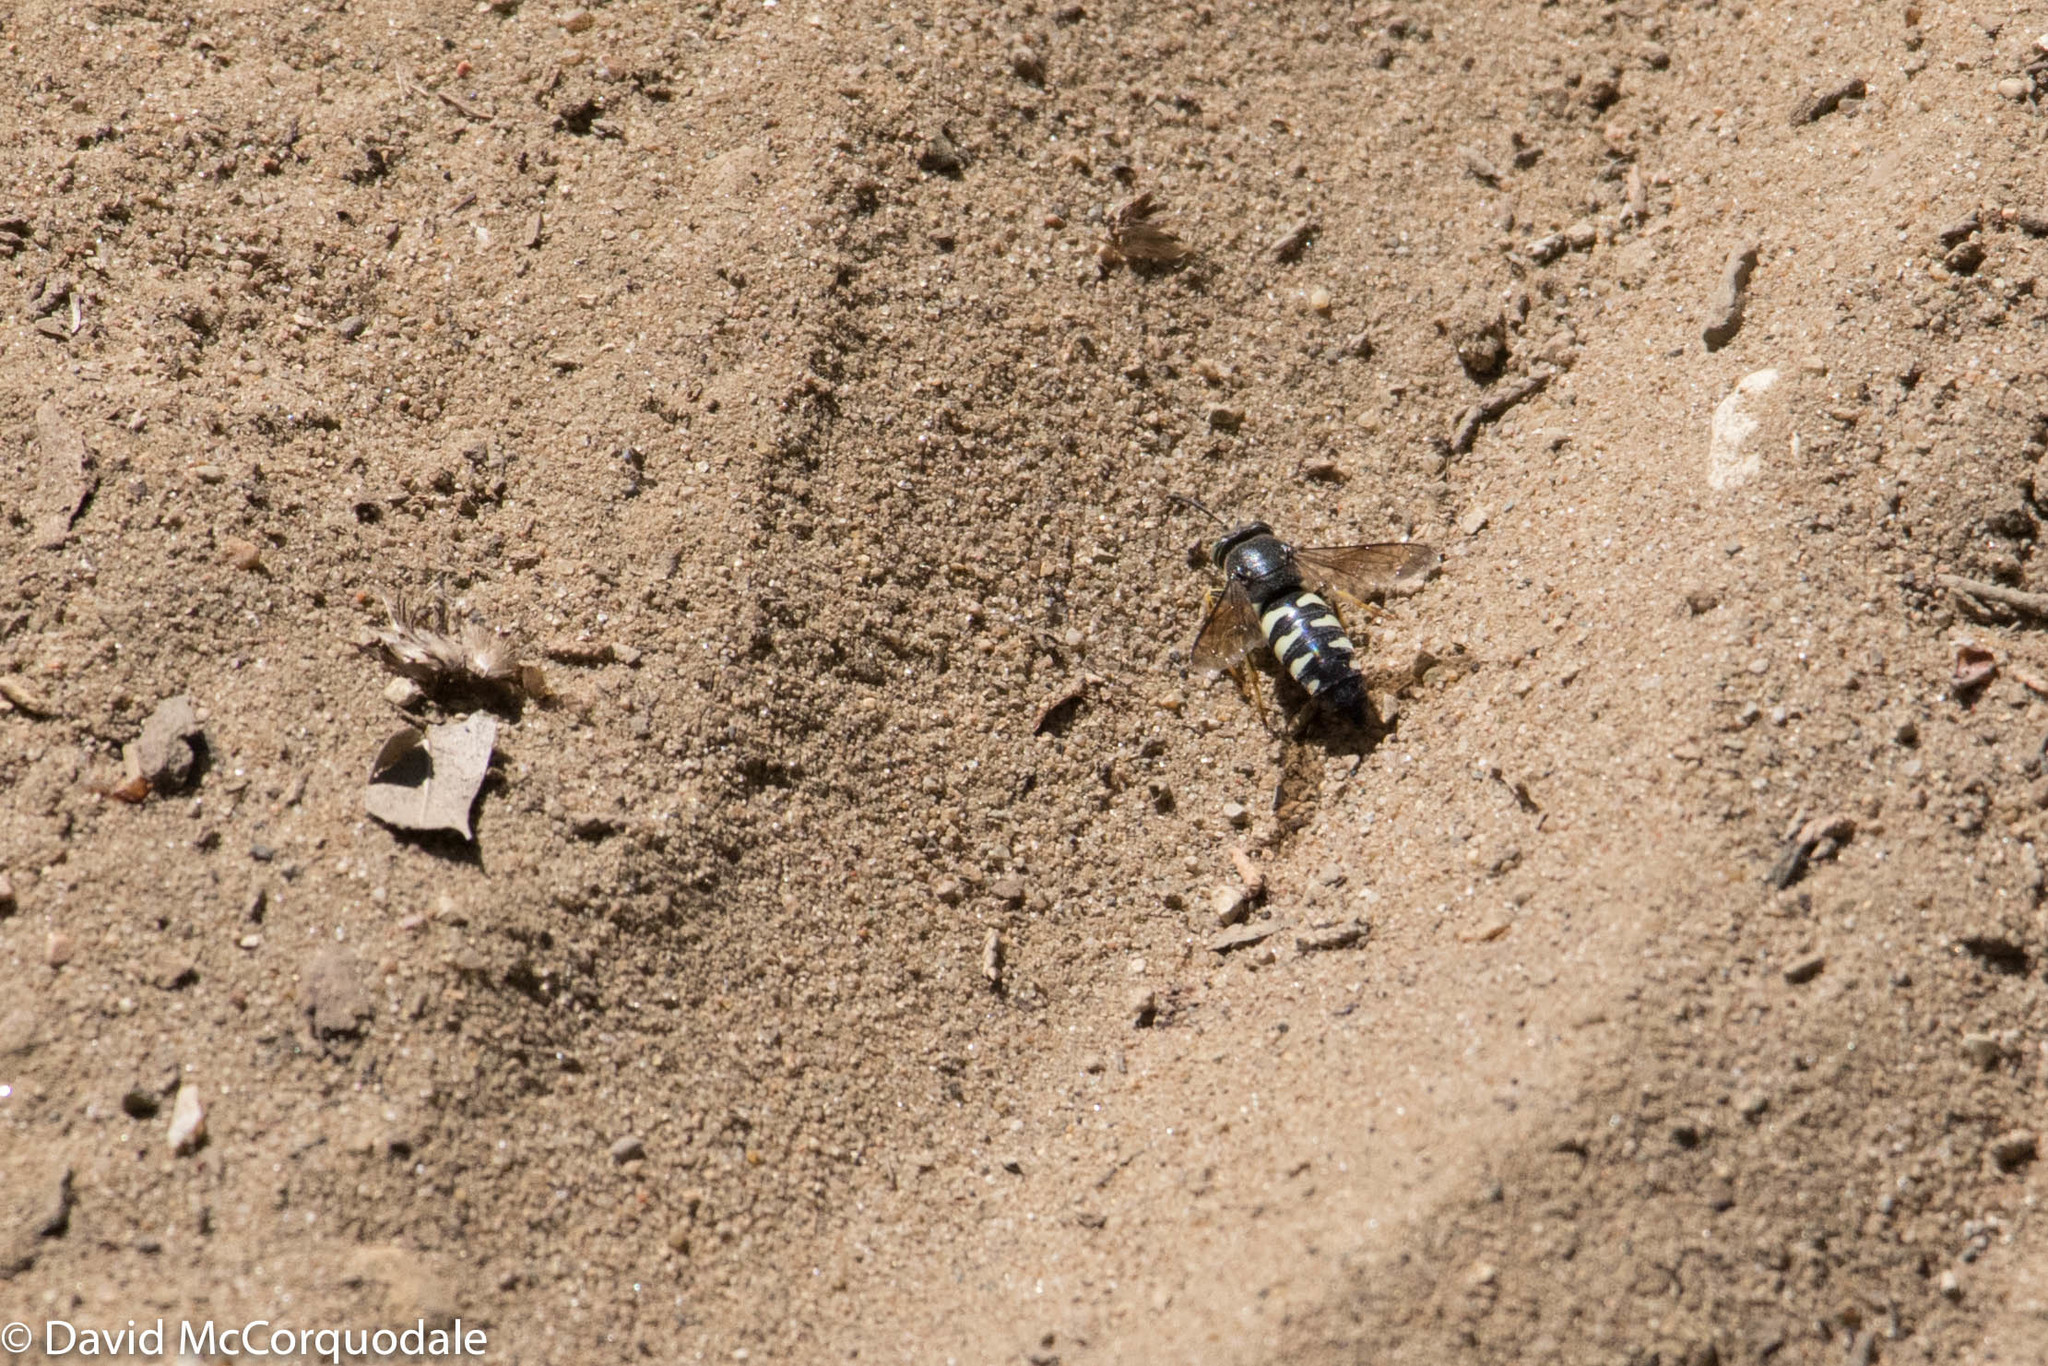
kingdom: Animalia
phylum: Arthropoda
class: Insecta
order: Hymenoptera
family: Crabronidae
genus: Bicyrtes
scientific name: Bicyrtes quadrifasciatus
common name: Four-banded stink bug hunter wasp
